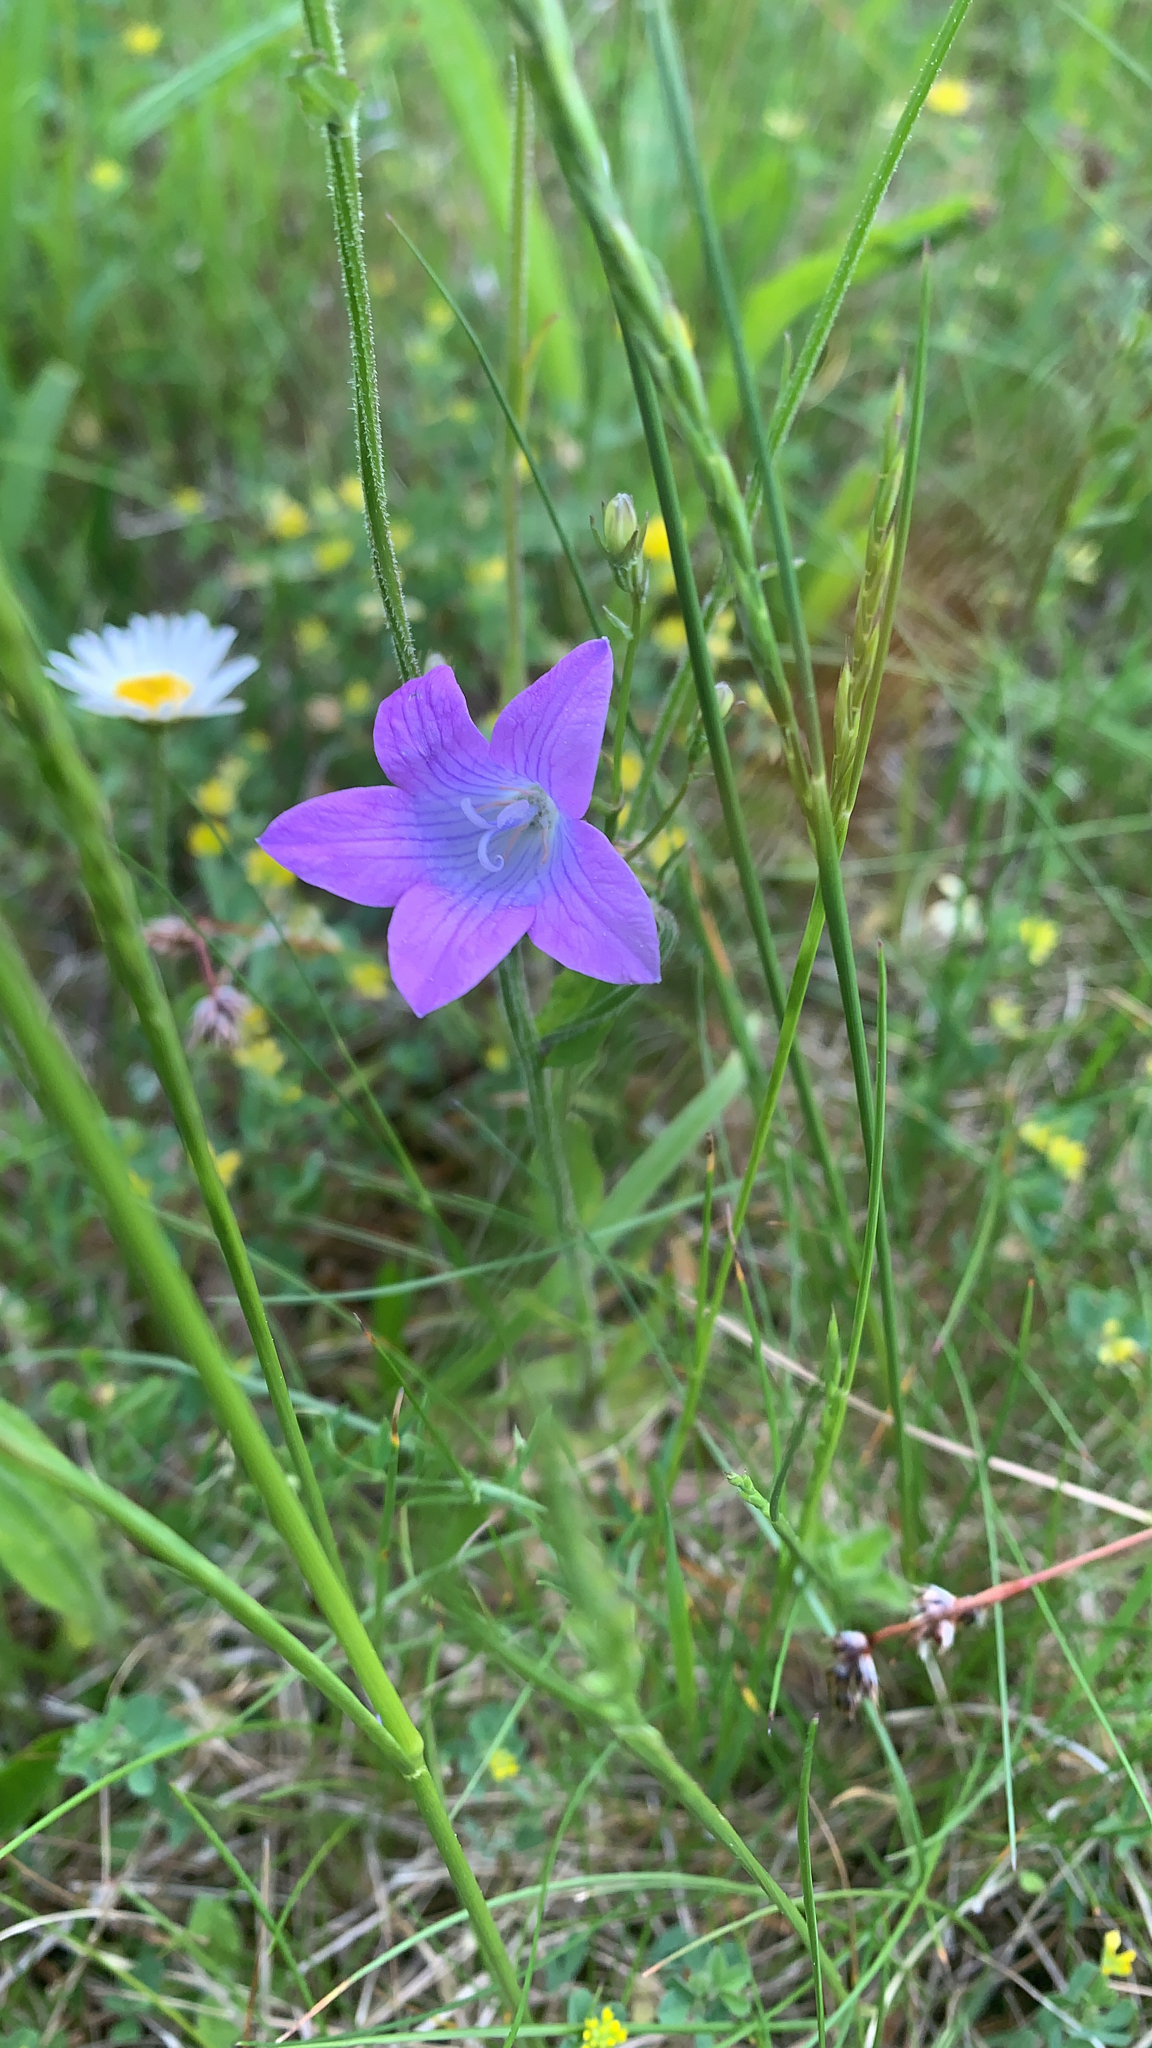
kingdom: Plantae
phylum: Tracheophyta
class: Magnoliopsida
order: Asterales
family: Campanulaceae
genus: Campanula
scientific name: Campanula patula
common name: Spreading bellflower
